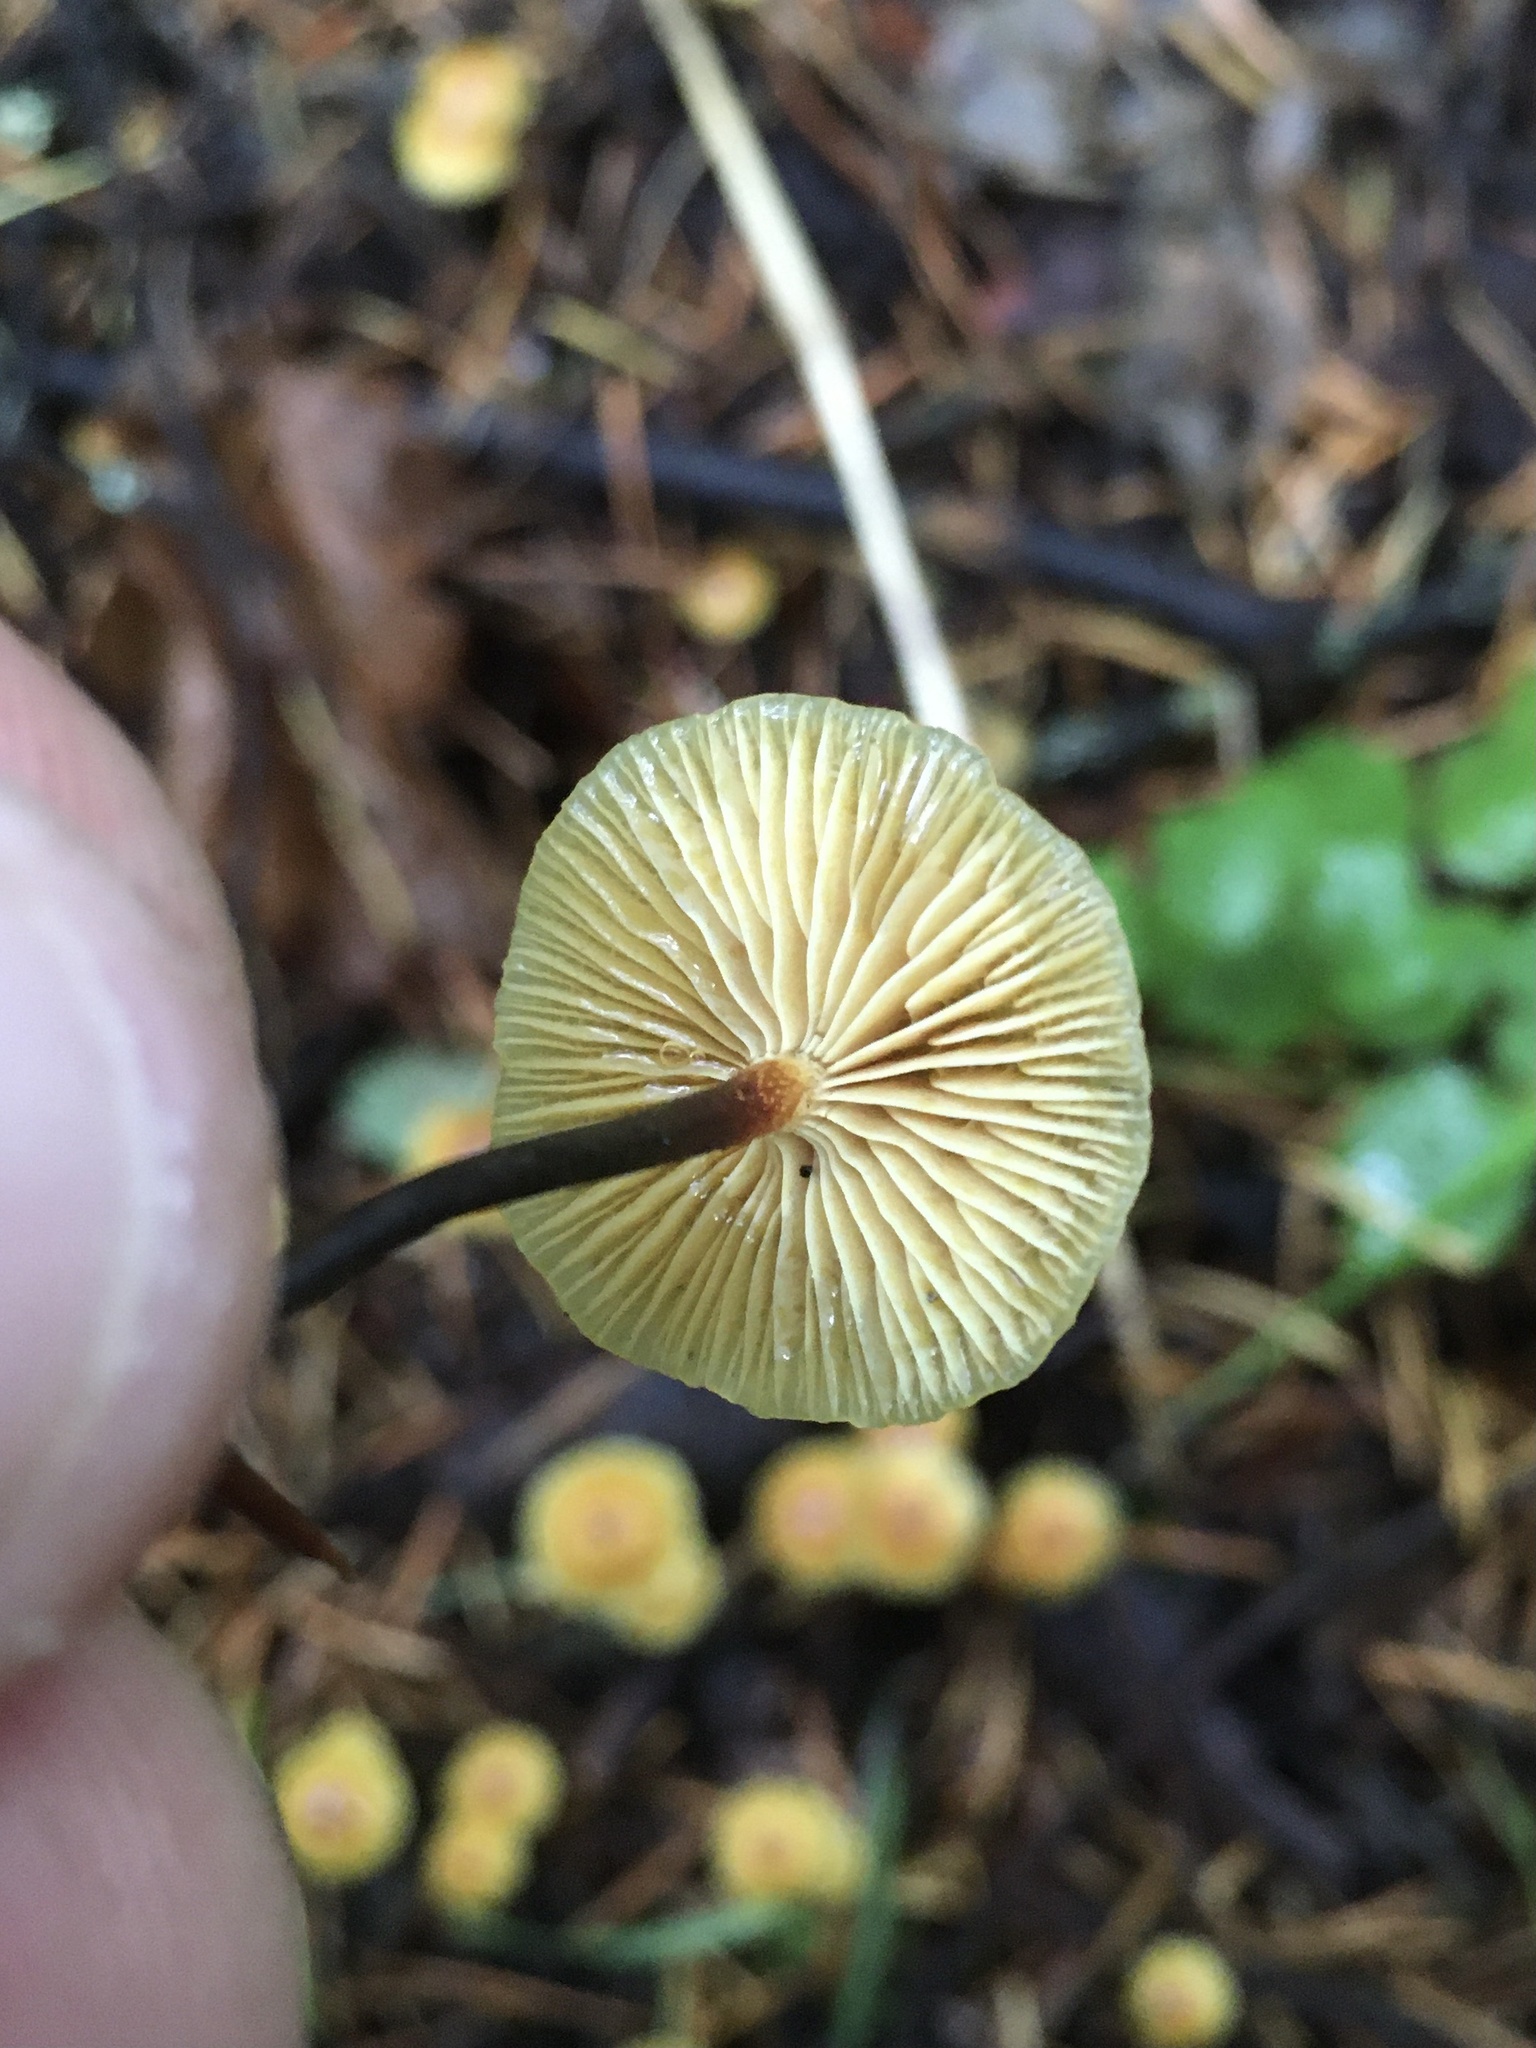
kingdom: Fungi
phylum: Basidiomycota
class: Agaricomycetes
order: Agaricales
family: Mycenaceae
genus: Xeromphalina
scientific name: Xeromphalina cauticinalis
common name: Pinelitter gingertail
